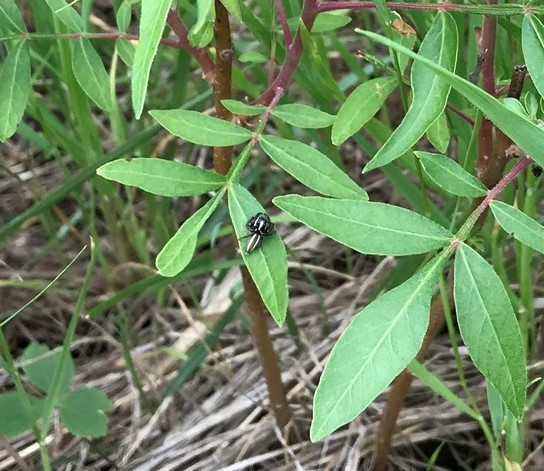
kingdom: Animalia
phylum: Arthropoda
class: Arachnida
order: Araneae
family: Salticidae
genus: Colonus
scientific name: Colonus puerperus
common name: Jumping spiders
